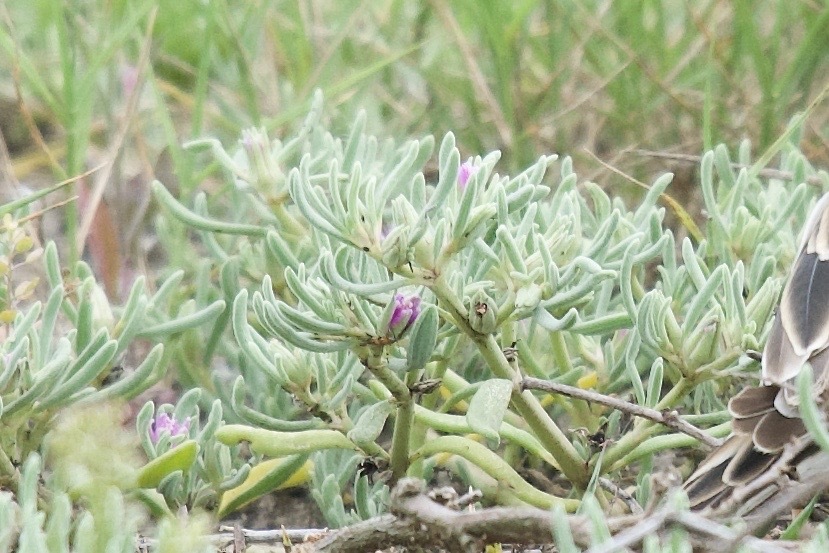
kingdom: Plantae
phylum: Tracheophyta
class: Magnoliopsida
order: Caryophyllales
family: Aizoaceae
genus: Sesuvium
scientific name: Sesuvium revolutifolium
